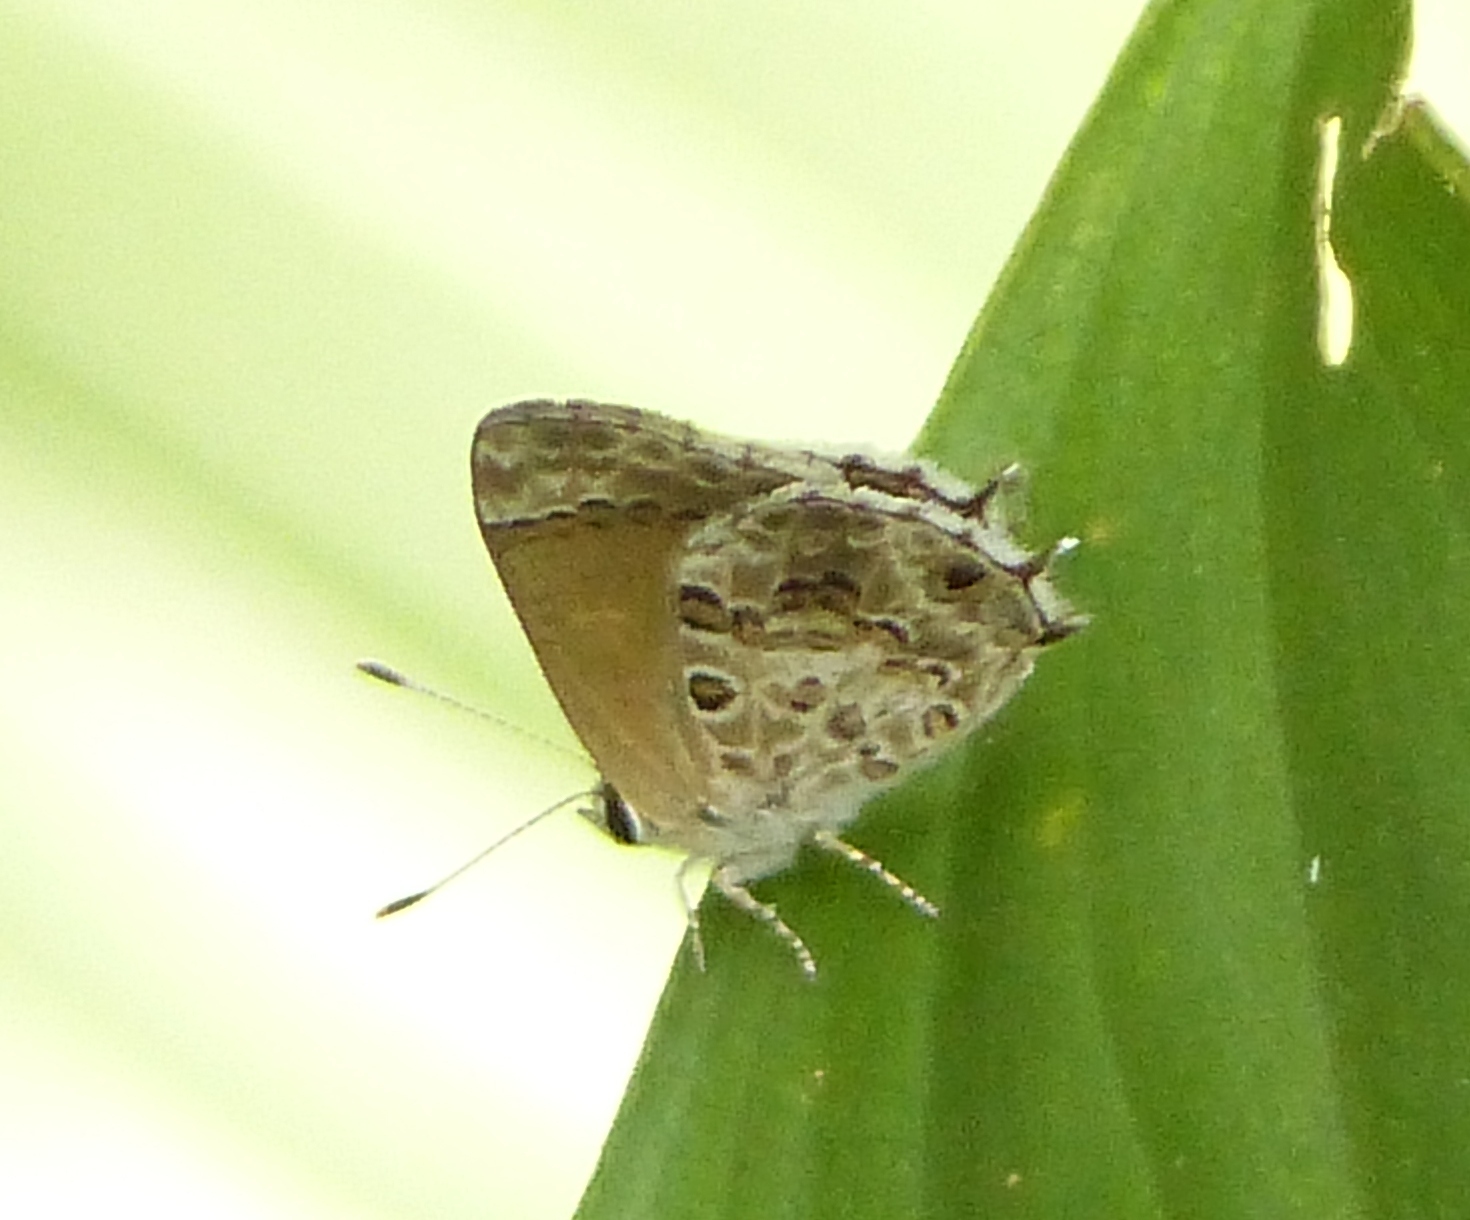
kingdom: Animalia
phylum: Arthropoda
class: Insecta
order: Lepidoptera
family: Lycaenidae
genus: Strymon
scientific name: Strymon astiocha
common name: Gray-spotted scrub-hairstreak
